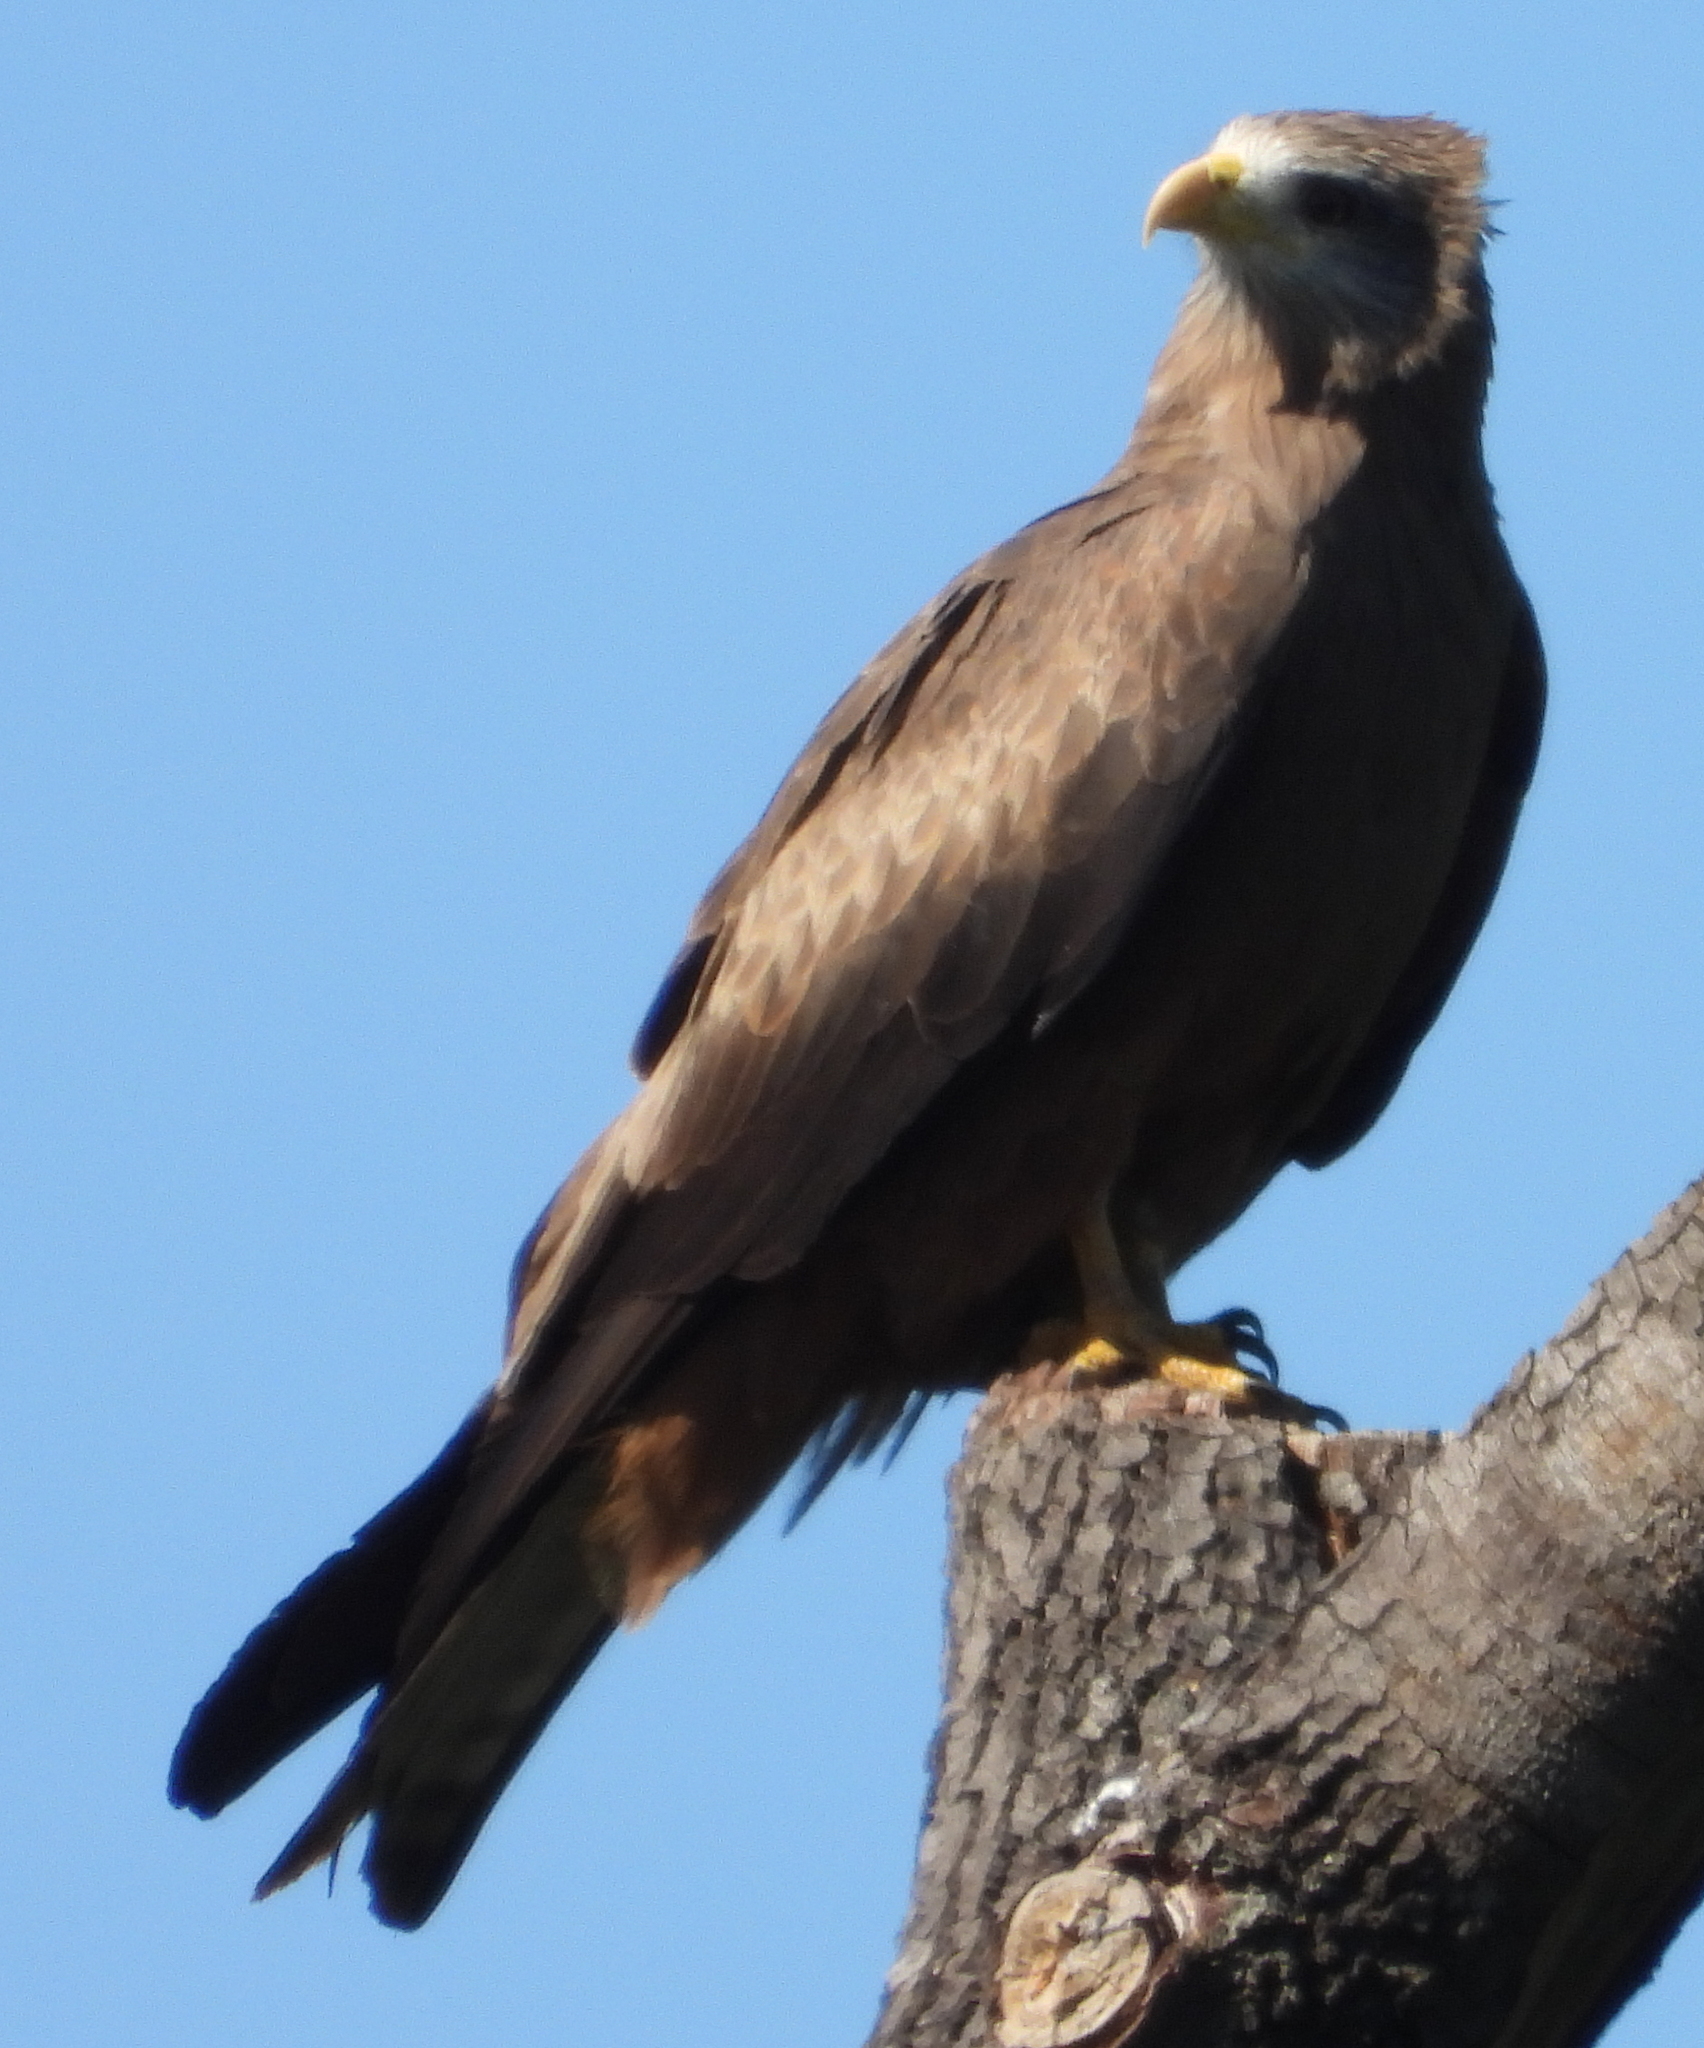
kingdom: Animalia
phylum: Chordata
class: Aves
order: Accipitriformes
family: Accipitridae
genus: Milvus
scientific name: Milvus migrans
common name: Black kite
